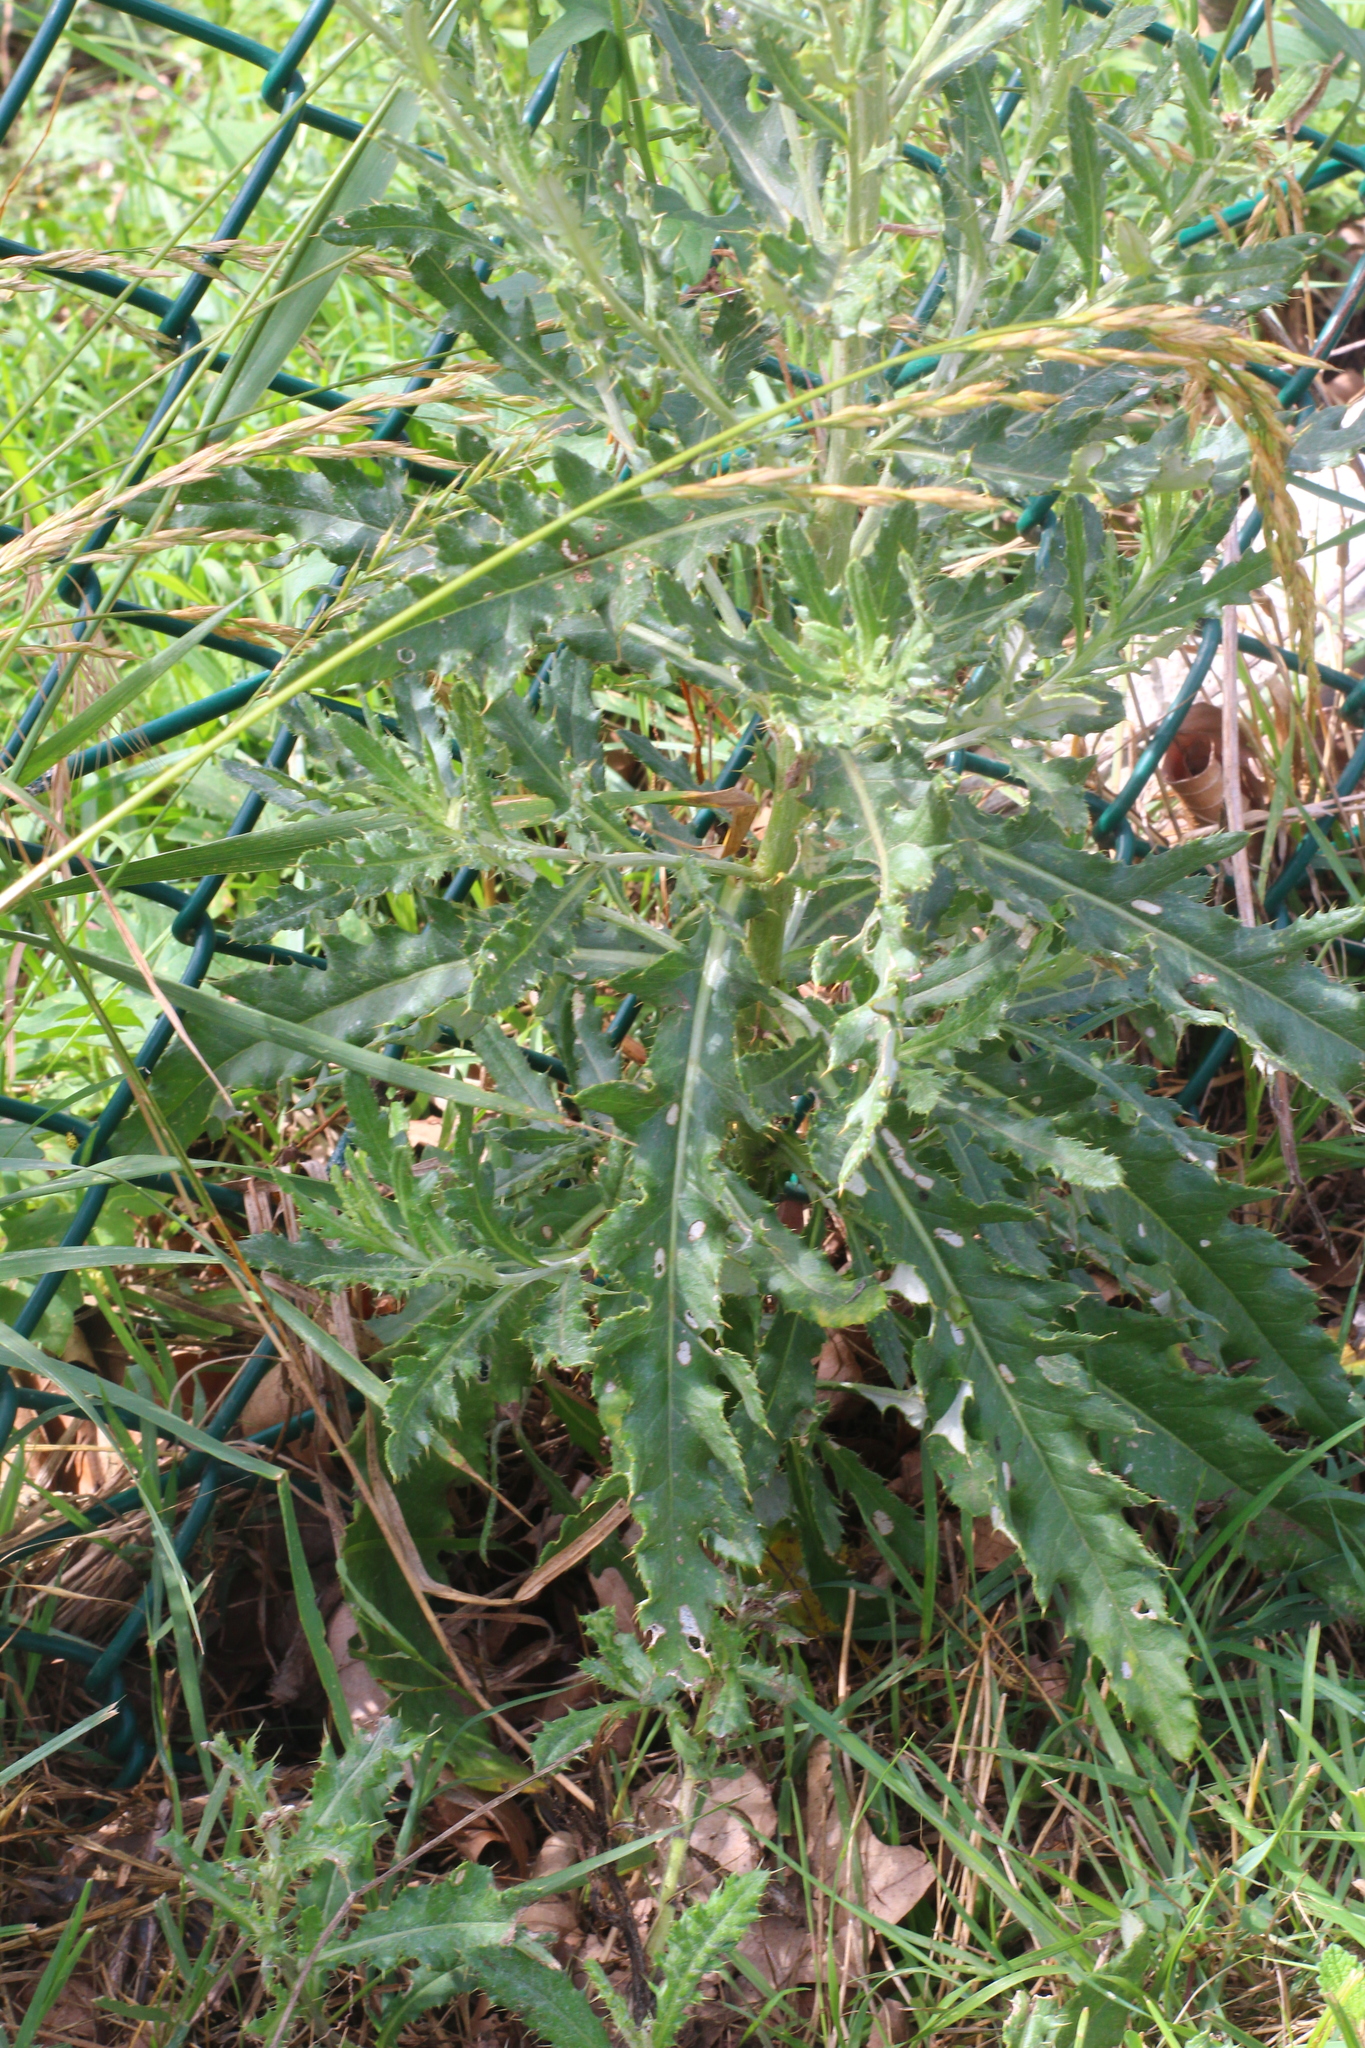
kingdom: Plantae
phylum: Tracheophyta
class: Magnoliopsida
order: Asterales
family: Asteraceae
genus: Cirsium
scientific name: Cirsium arvense
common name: Creeping thistle
